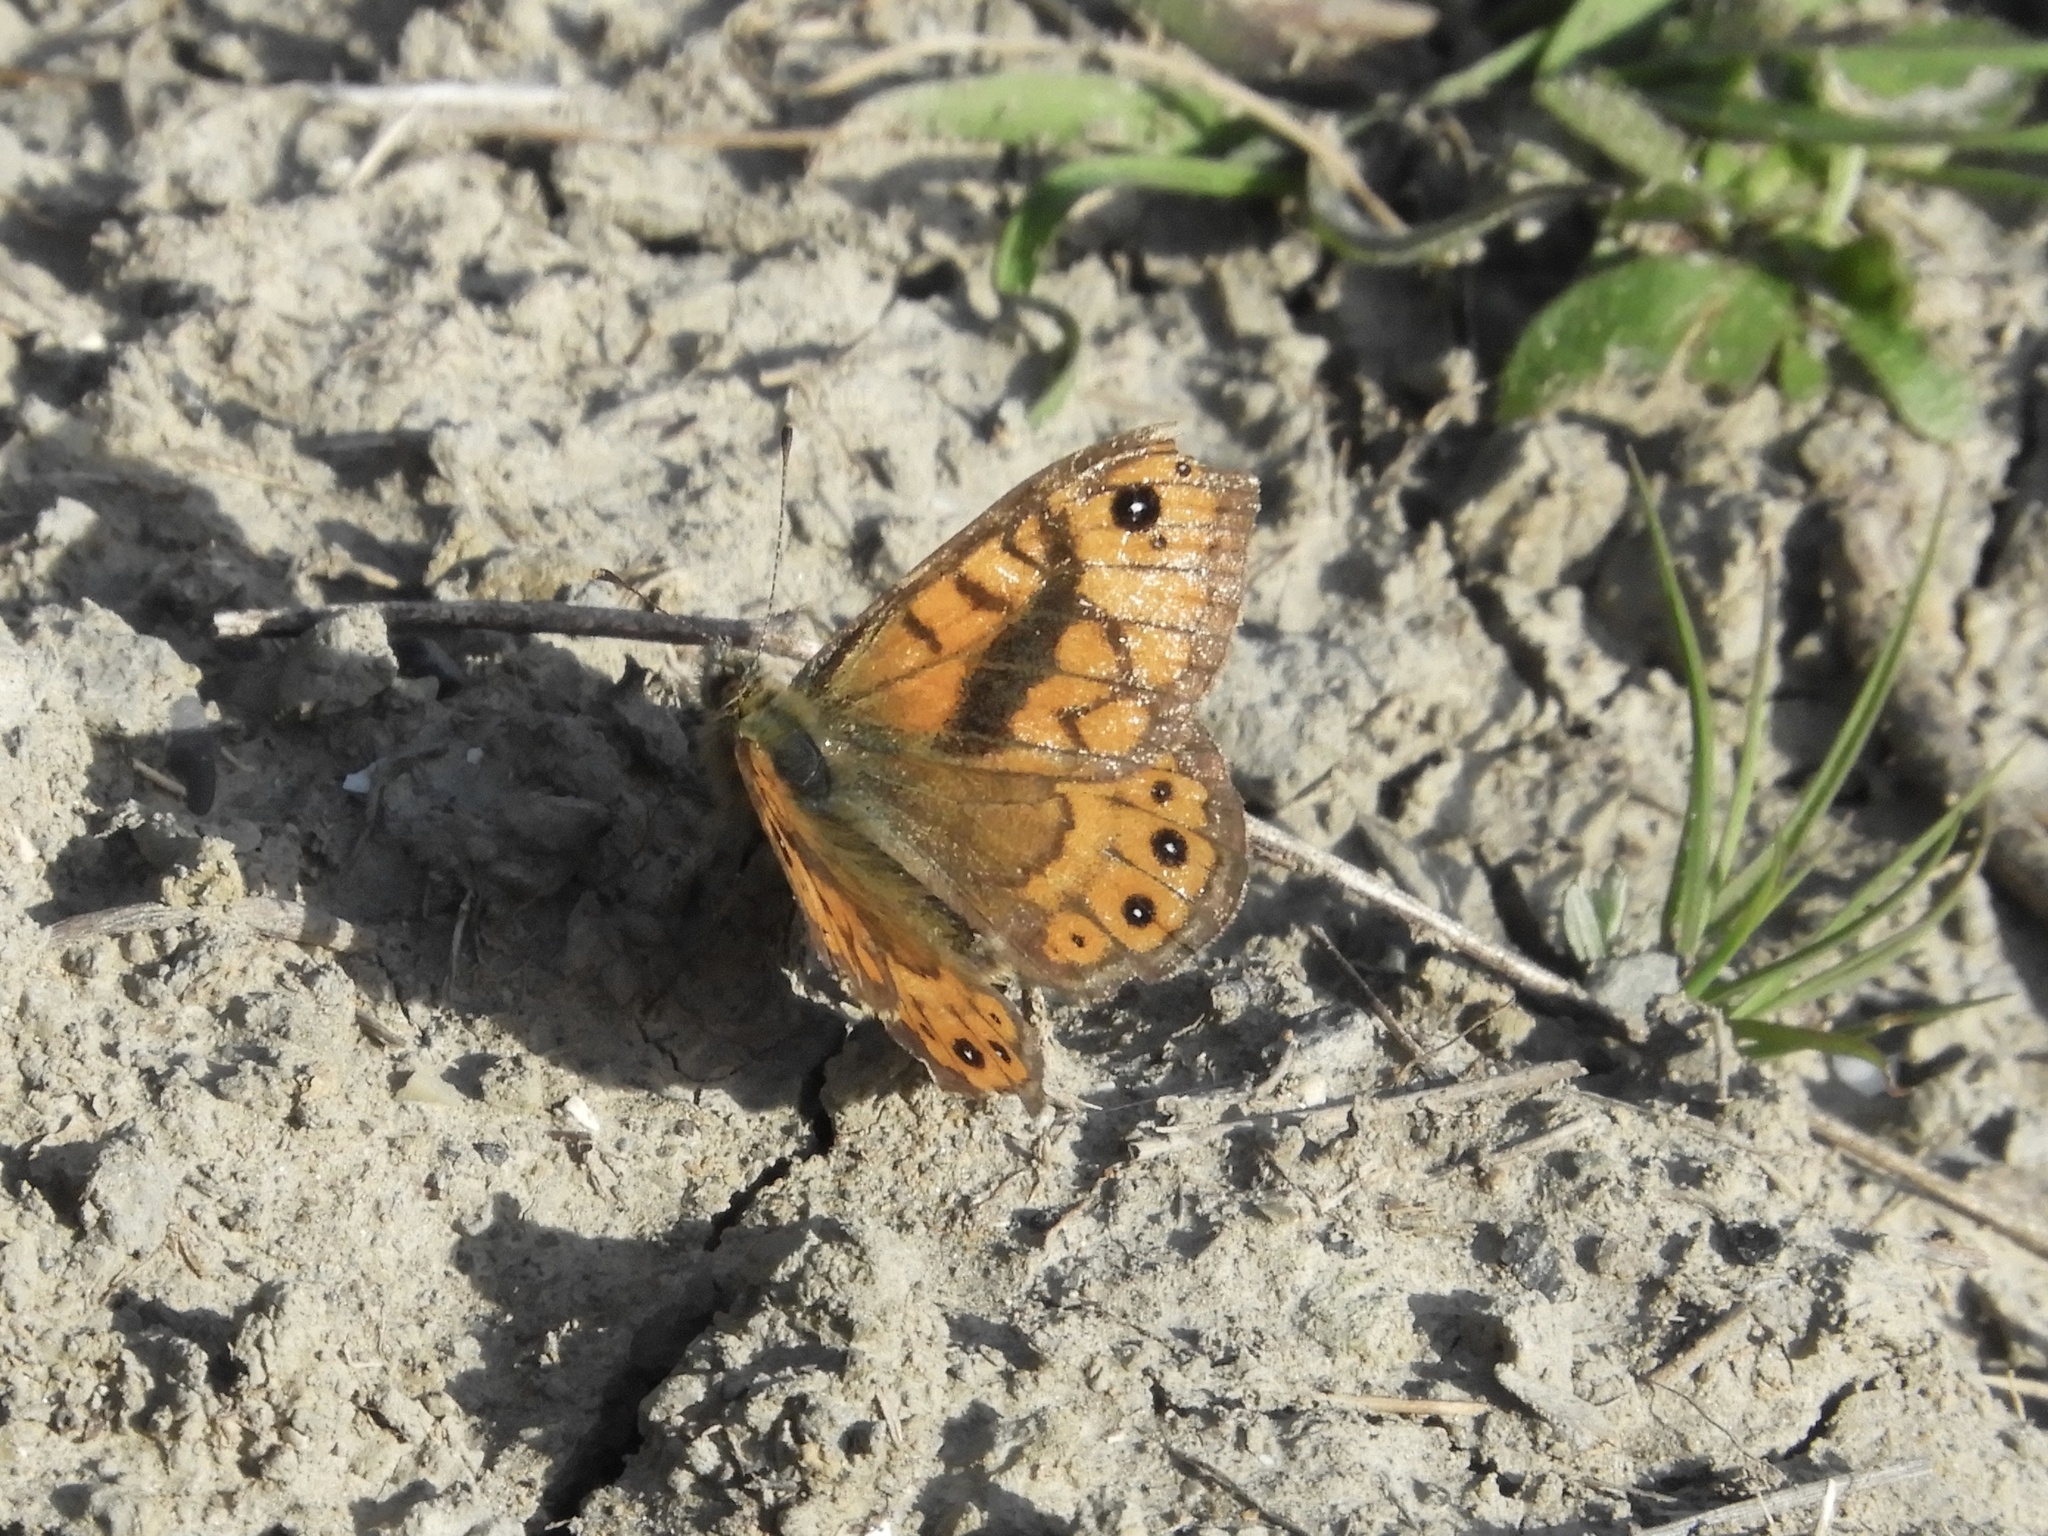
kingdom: Animalia
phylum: Arthropoda
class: Insecta
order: Lepidoptera
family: Nymphalidae
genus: Pararge
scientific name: Pararge Lasiommata megera
